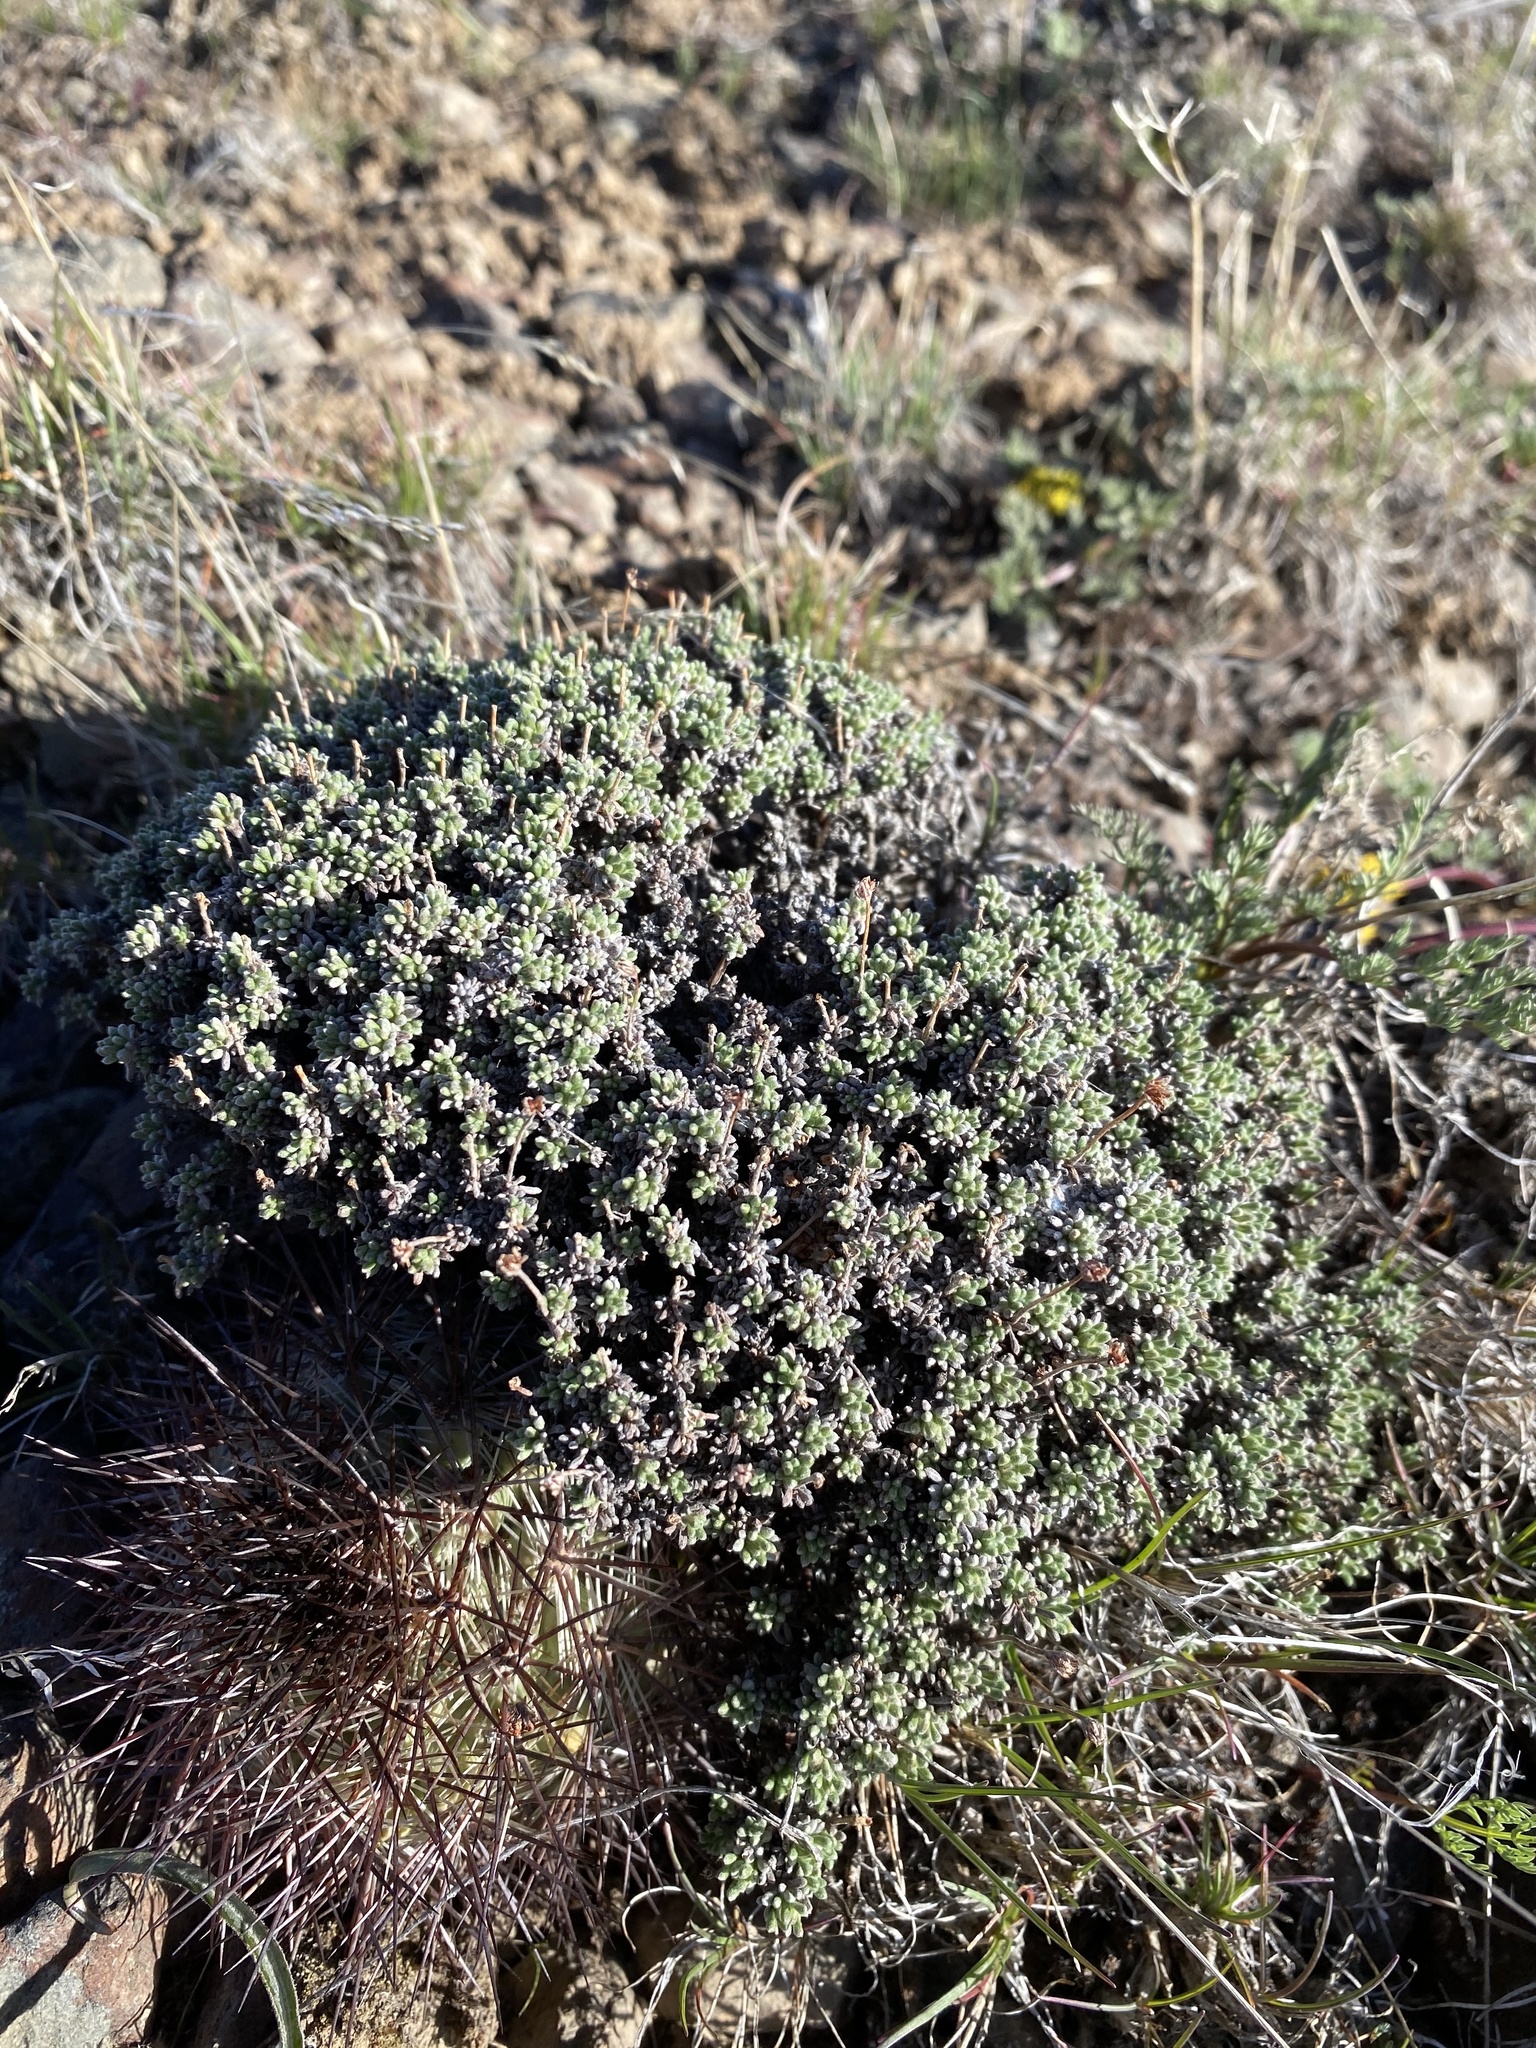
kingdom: Plantae
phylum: Tracheophyta
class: Magnoliopsida
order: Caryophyllales
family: Polygonaceae
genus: Eriogonum
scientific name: Eriogonum thymoides
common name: Thyme-leaf wild buckwheat
